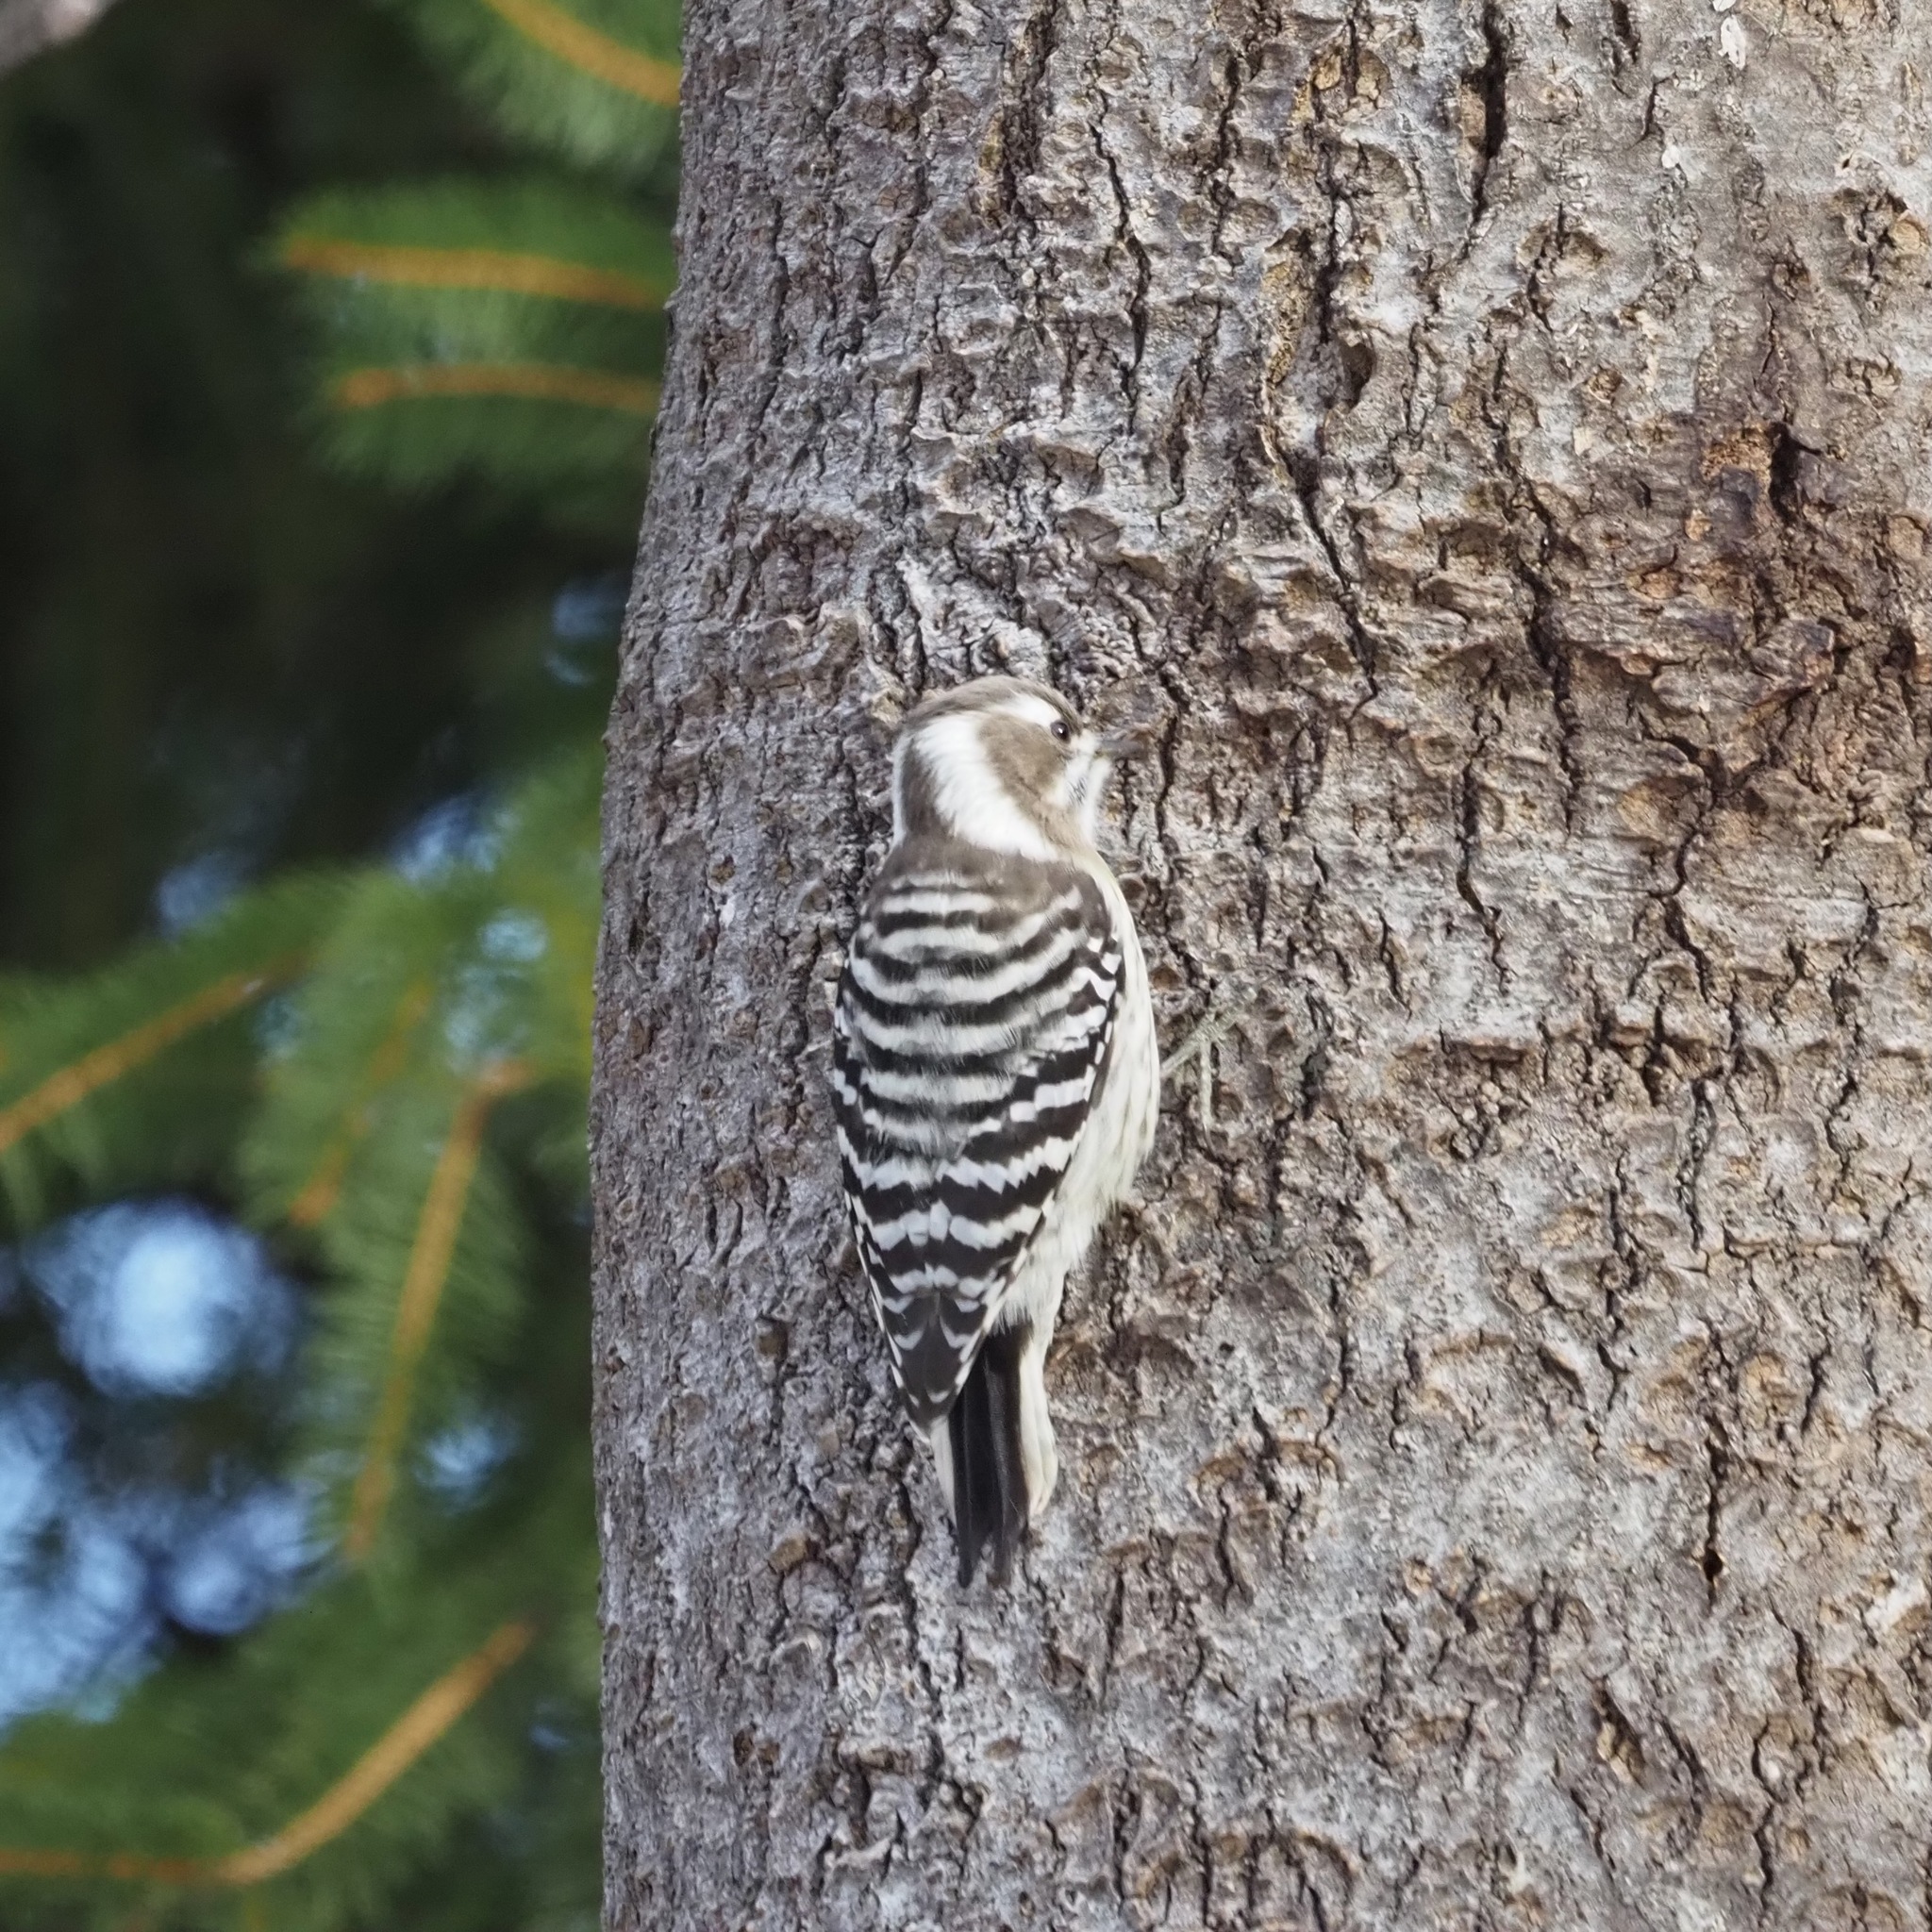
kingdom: Animalia
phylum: Chordata
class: Aves
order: Piciformes
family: Picidae
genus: Yungipicus
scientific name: Yungipicus kizuki
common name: Japanese pygmy woodpecker
